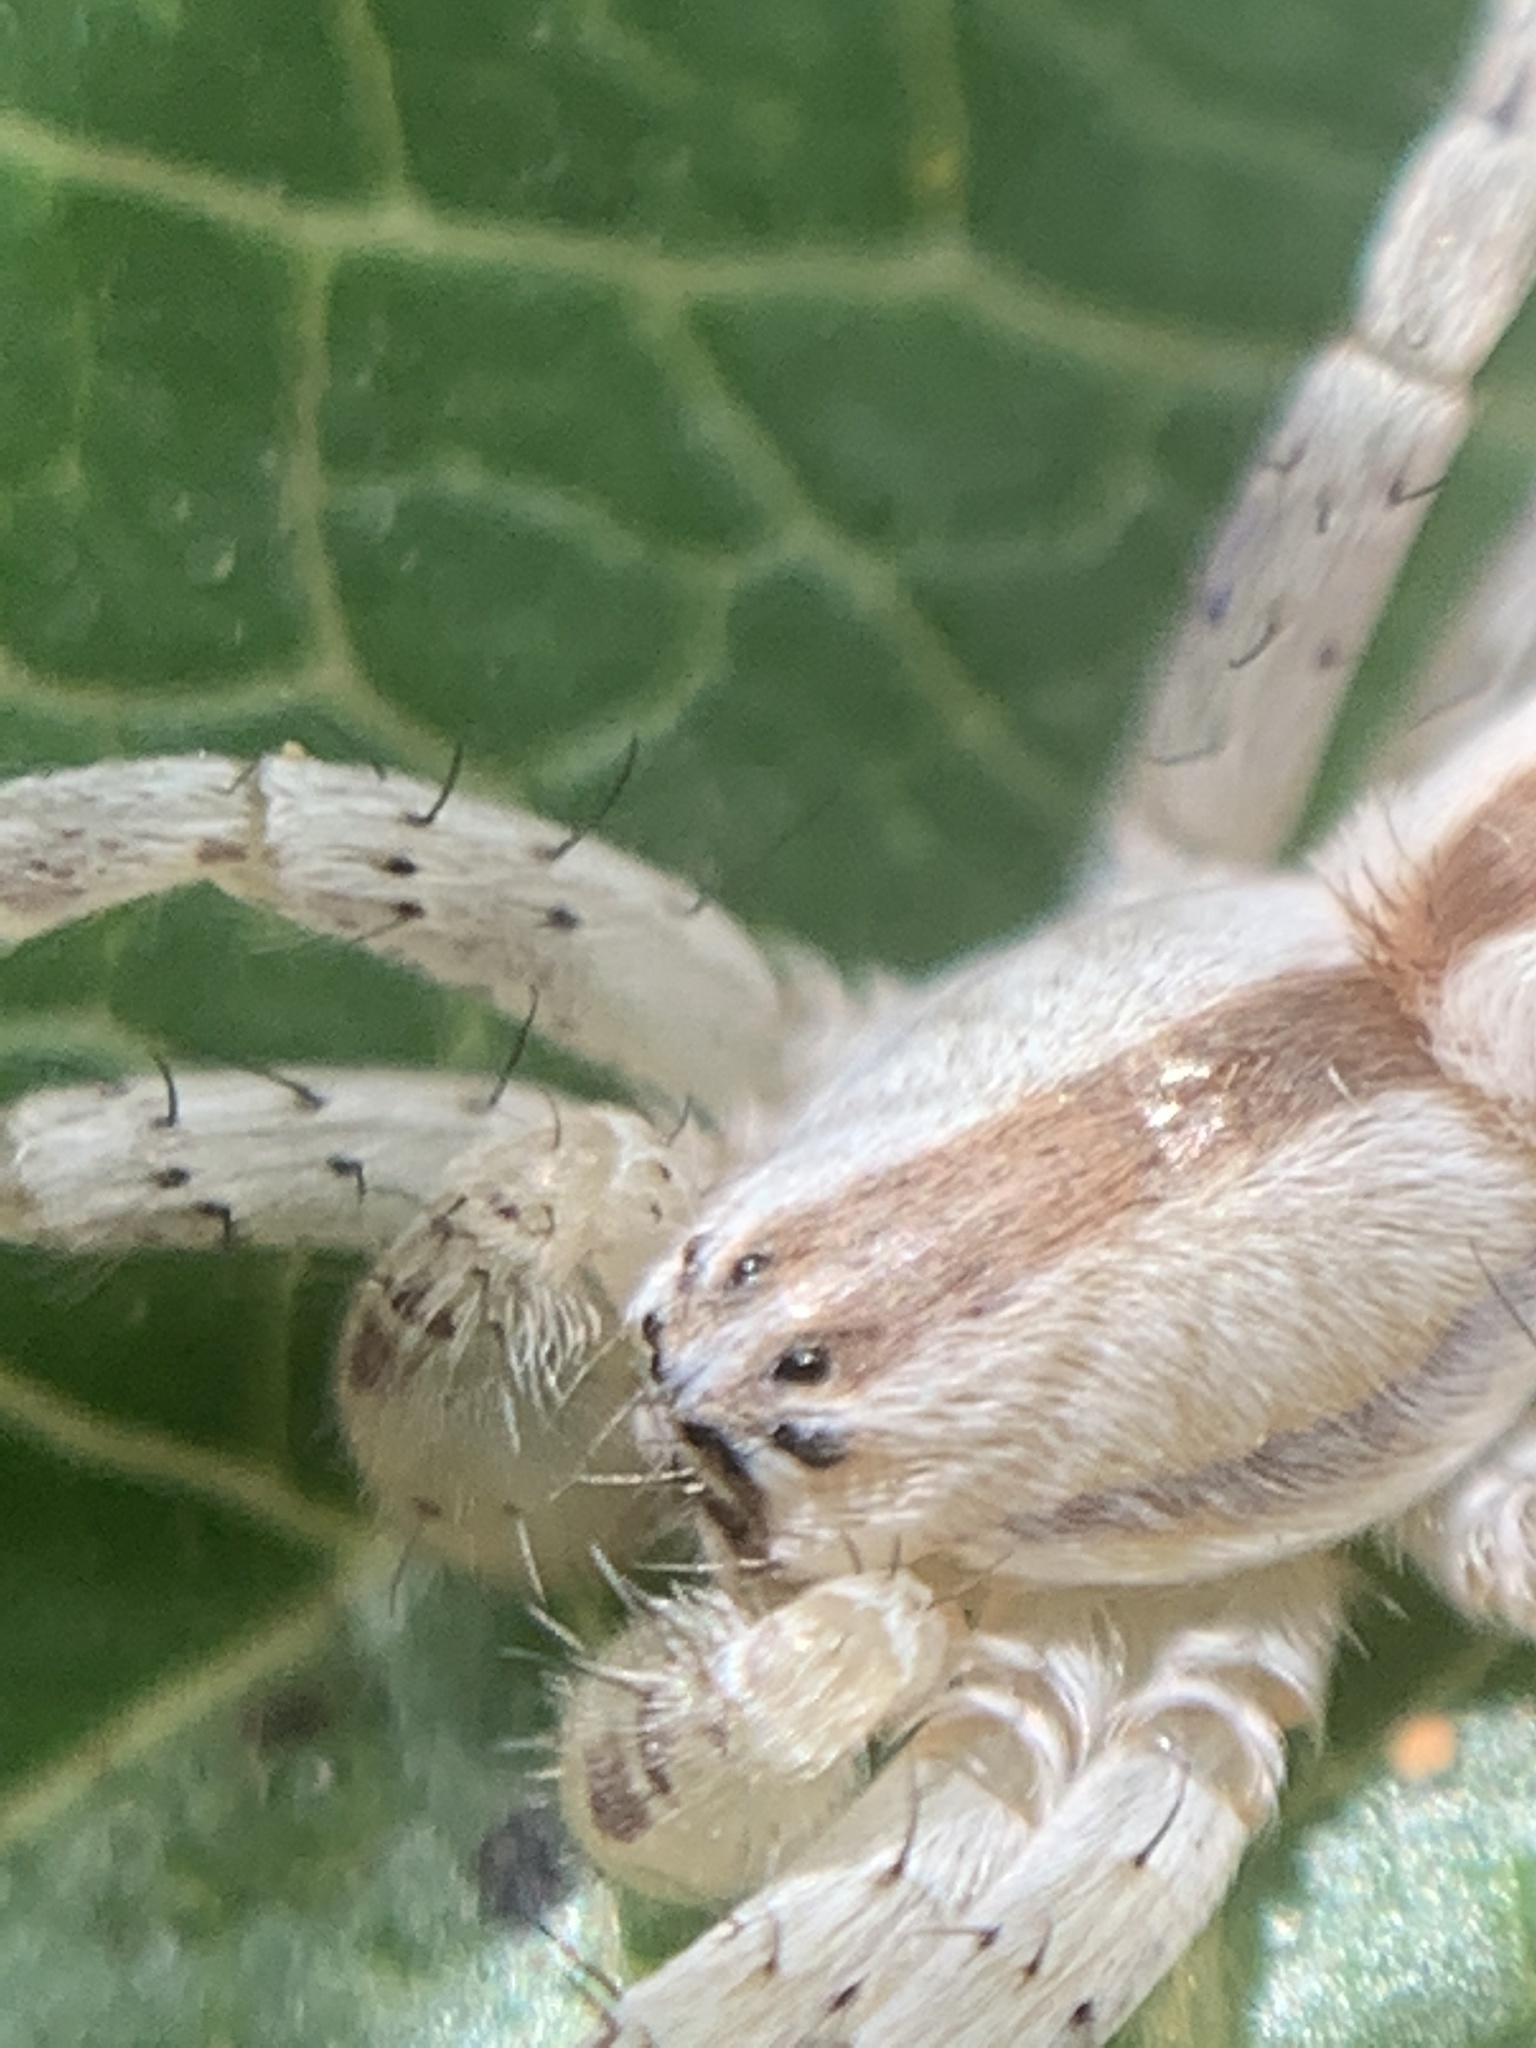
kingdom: Animalia
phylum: Arthropoda
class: Arachnida
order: Araneae
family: Anyphaenidae
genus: Arachosia
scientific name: Arachosia praesignis
